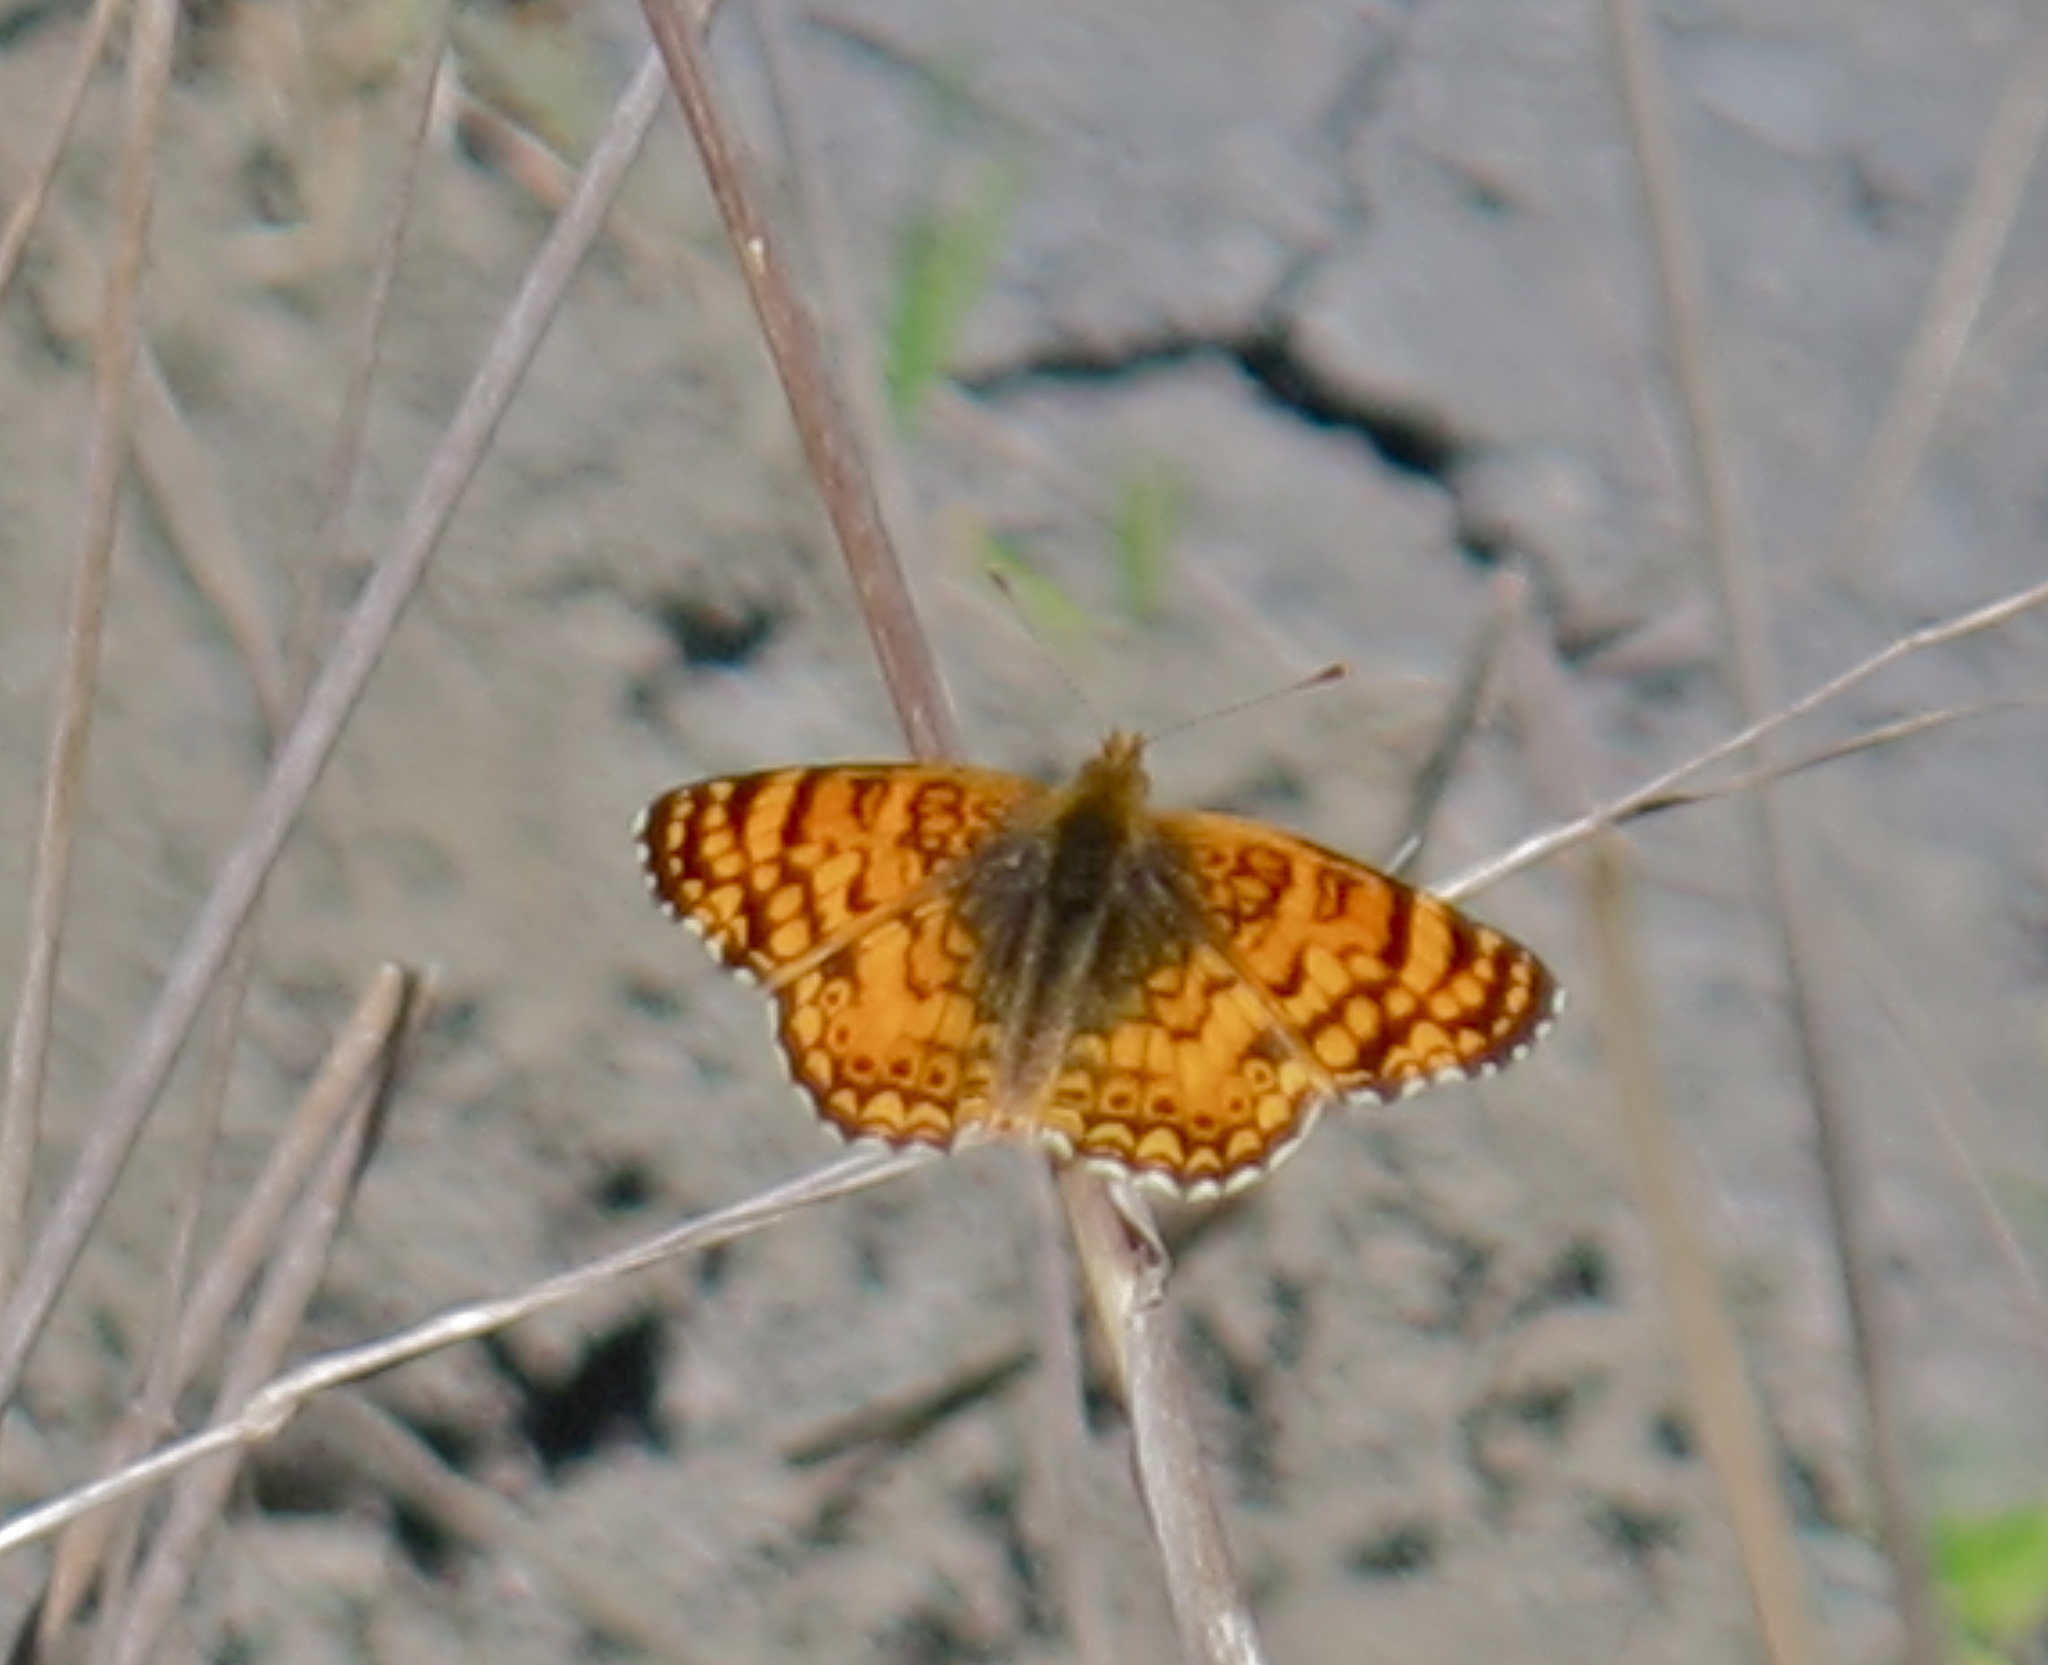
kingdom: Animalia
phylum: Arthropoda
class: Insecta
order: Lepidoptera
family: Nymphalidae
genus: Eresia
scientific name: Eresia aveyrona
